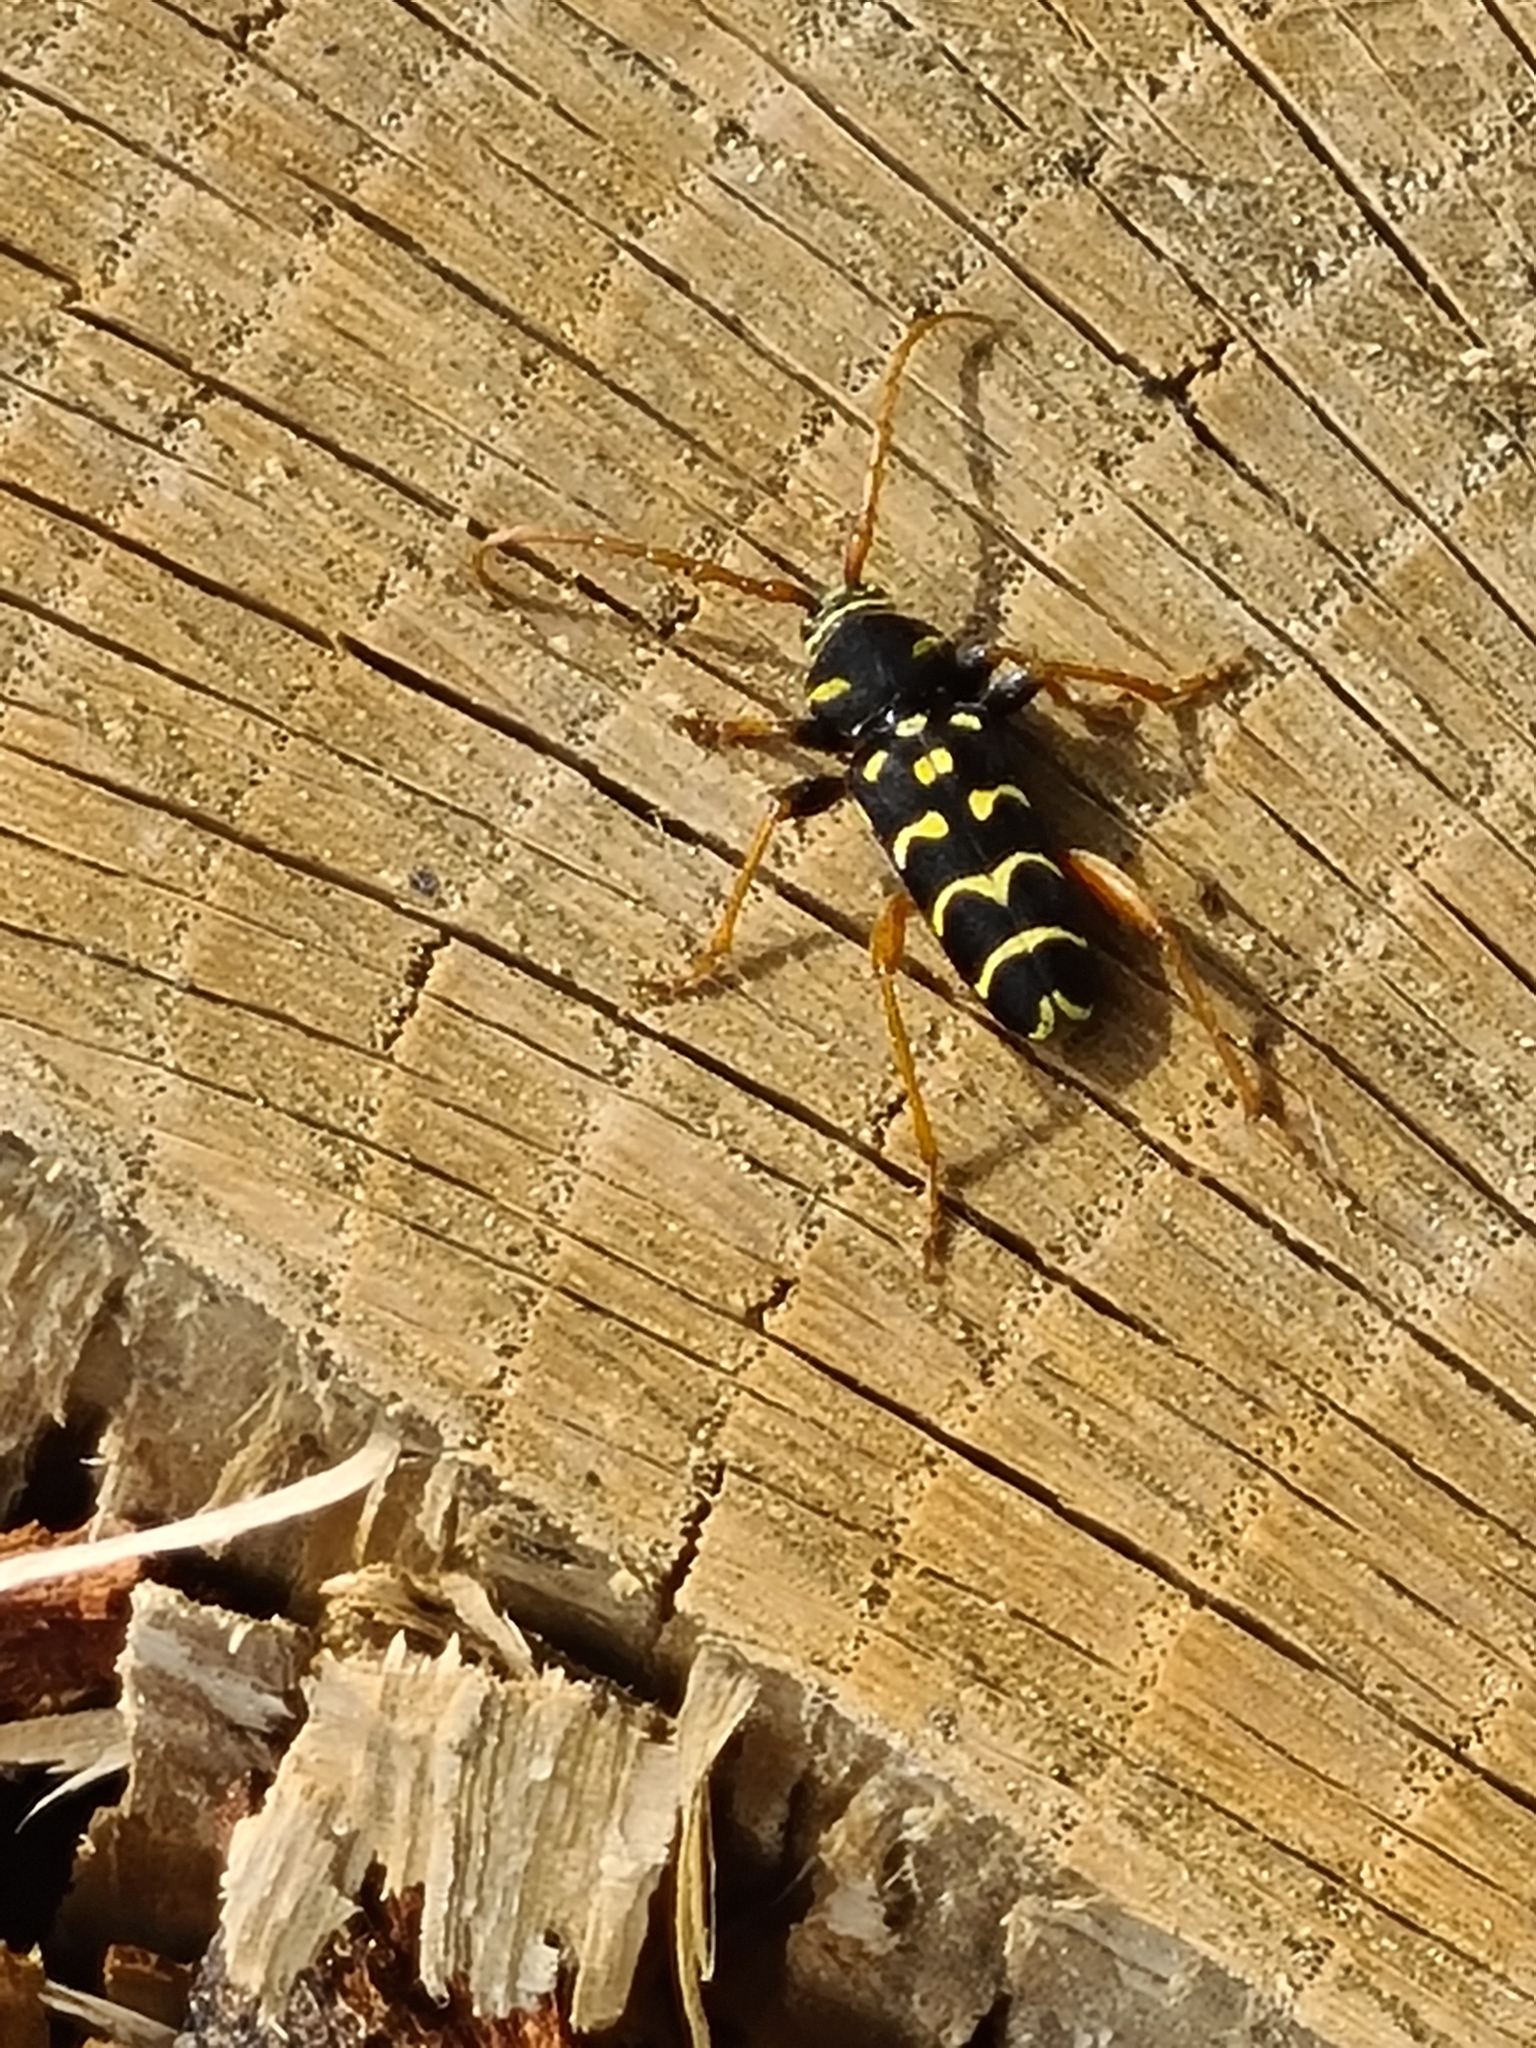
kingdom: Animalia
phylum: Arthropoda
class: Insecta
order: Coleoptera
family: Cerambycidae
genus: Plagionotus
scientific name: Plagionotus arcuatus
